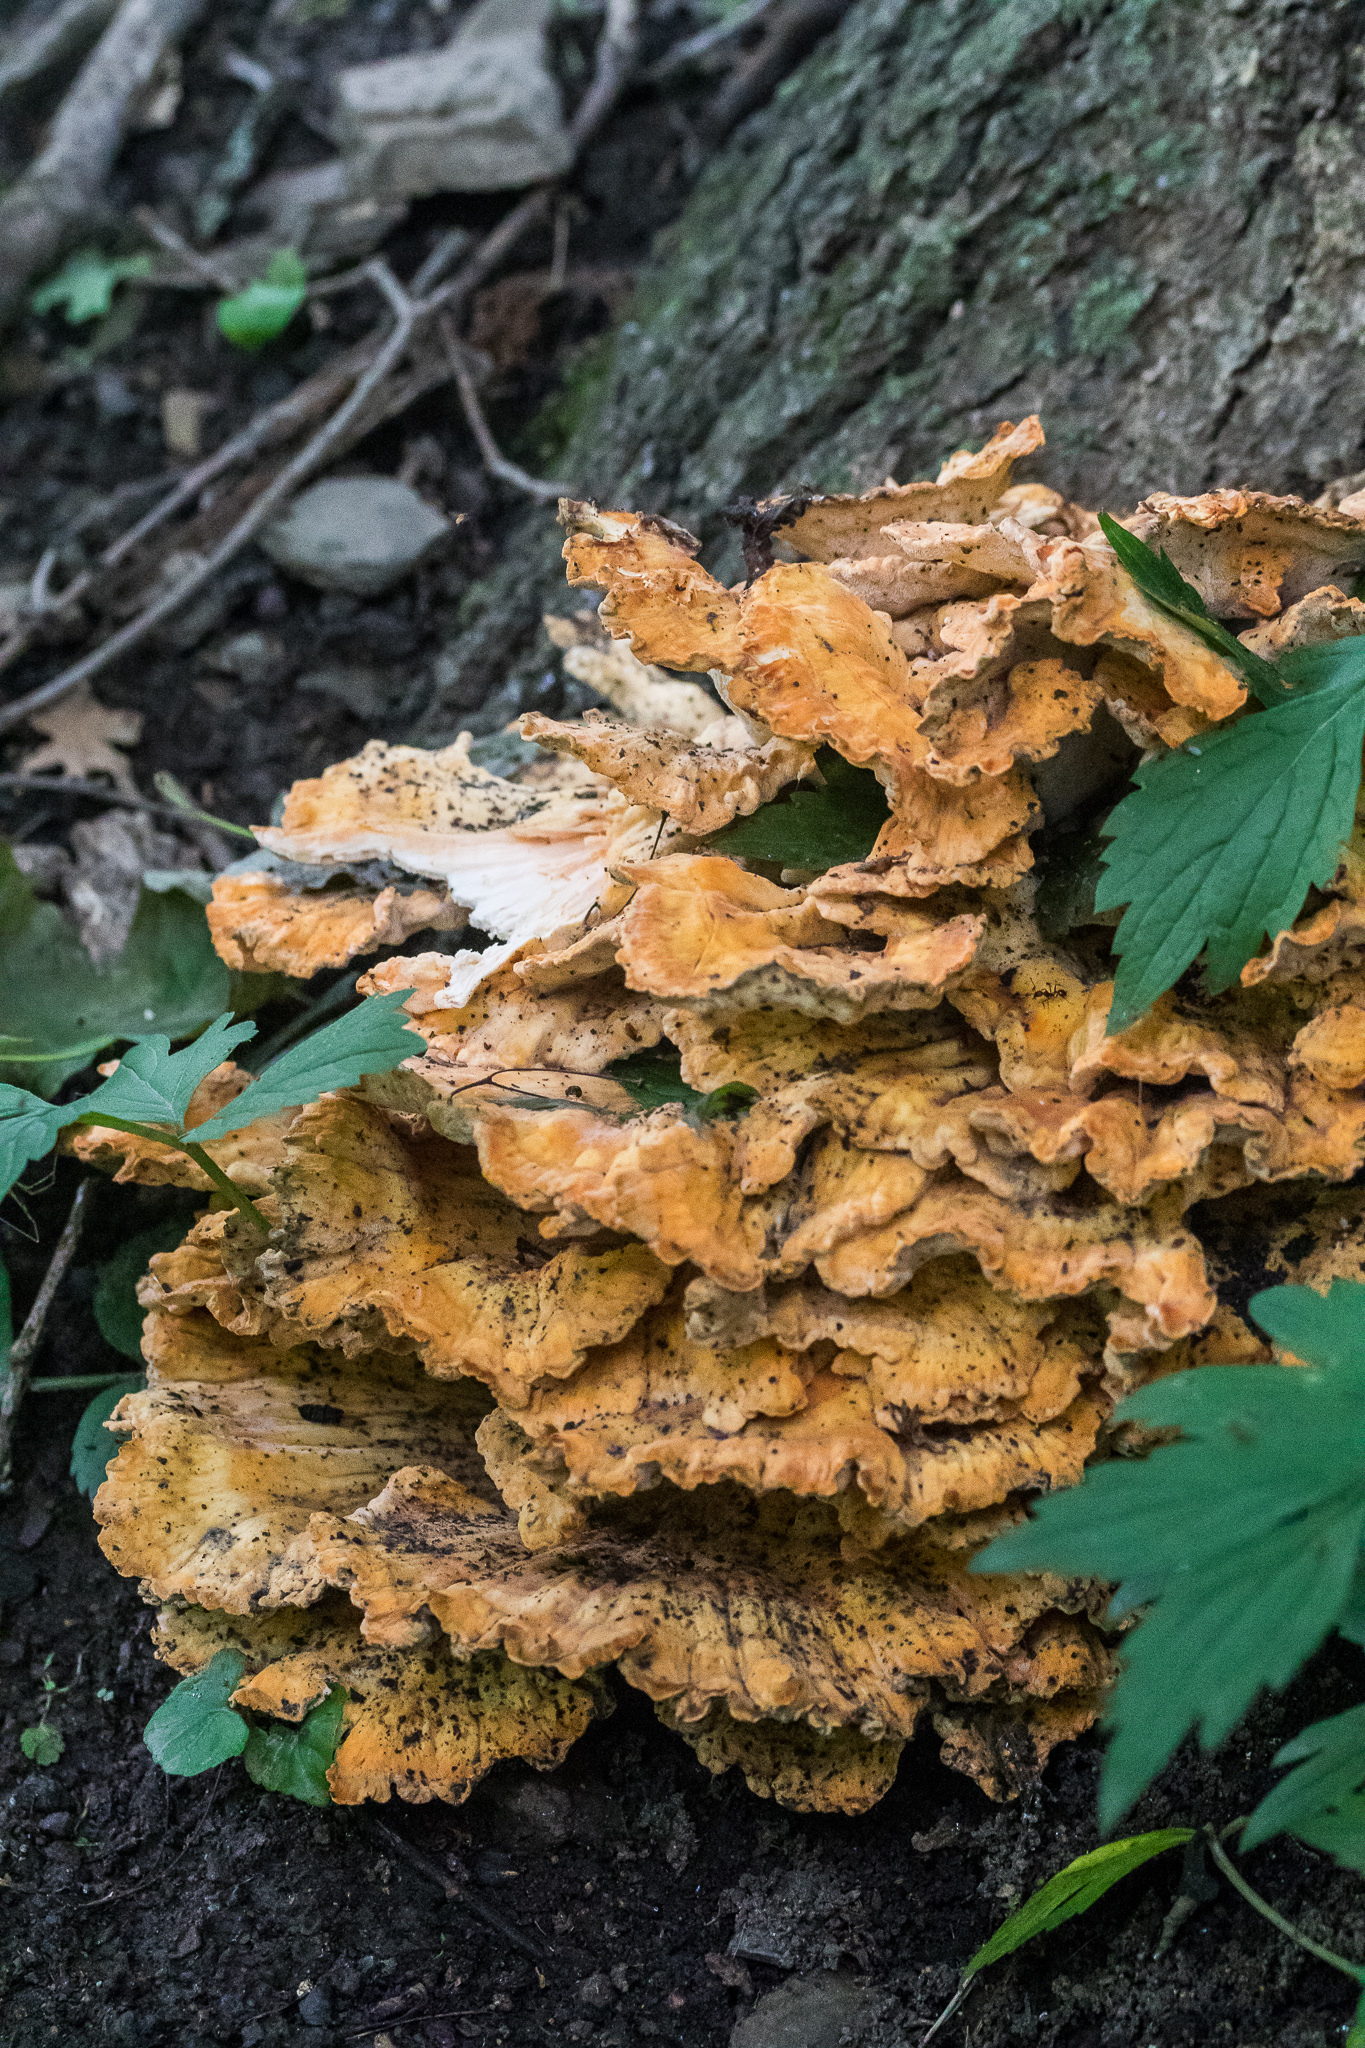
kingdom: Fungi
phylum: Basidiomycota
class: Agaricomycetes
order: Polyporales
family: Laetiporaceae
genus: Laetiporus
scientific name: Laetiporus sulphureus
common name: Chicken of the woods
